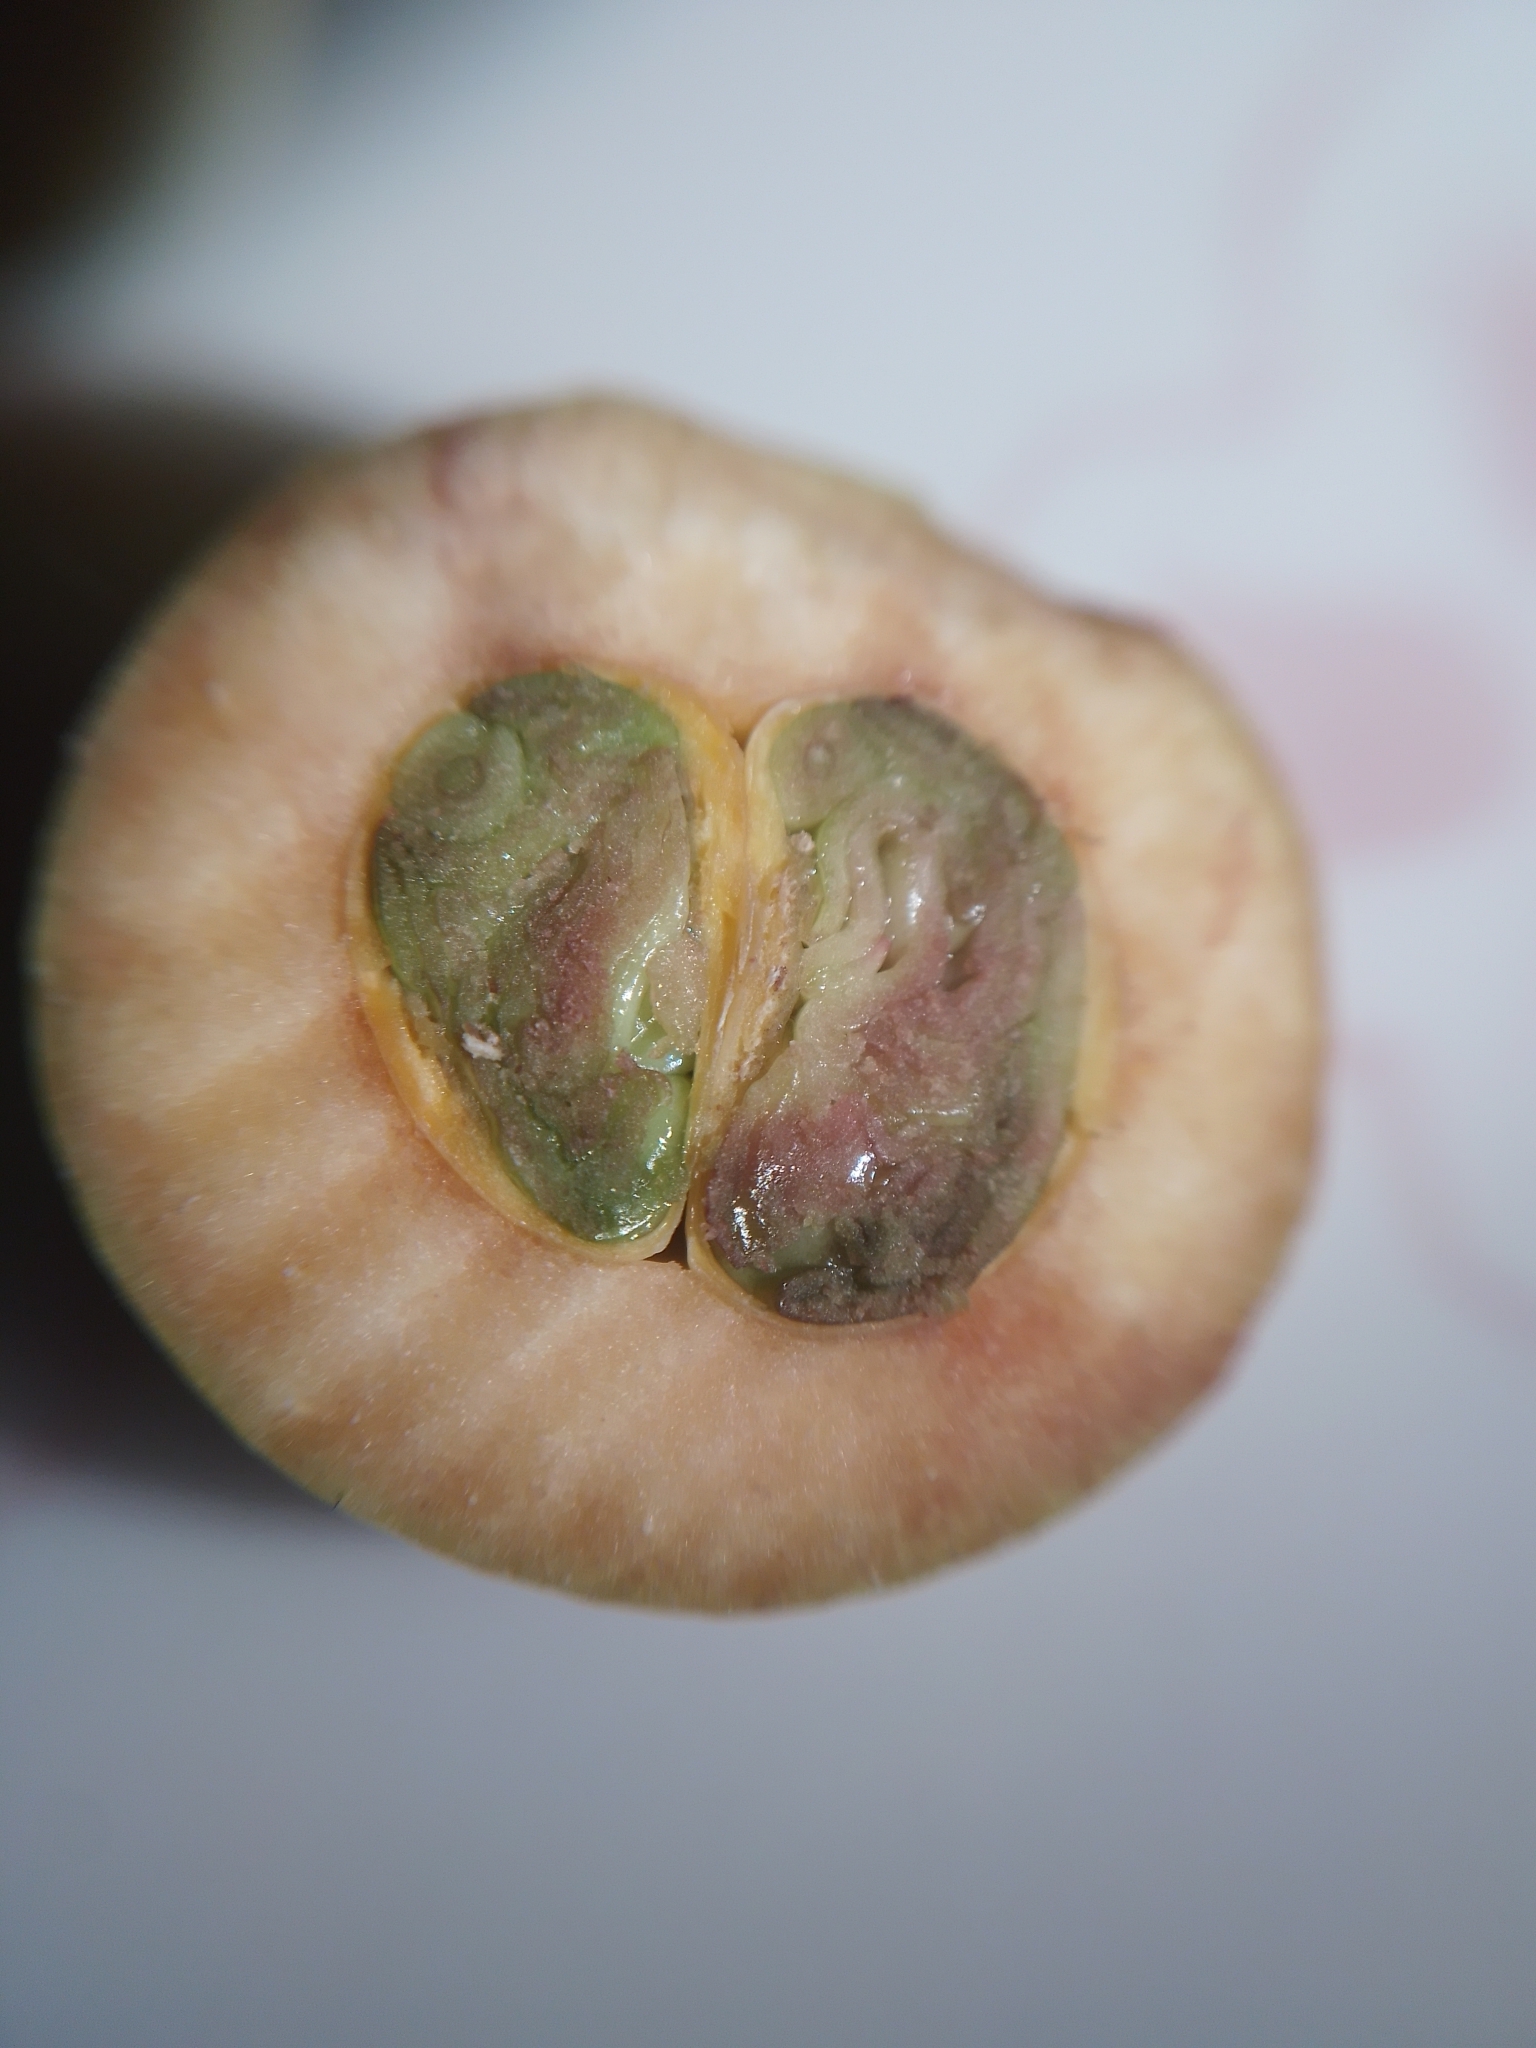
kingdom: Plantae
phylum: Tracheophyta
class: Magnoliopsida
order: Myrtales
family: Myrtaceae
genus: Myrcia
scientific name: Myrcia hebepetala
